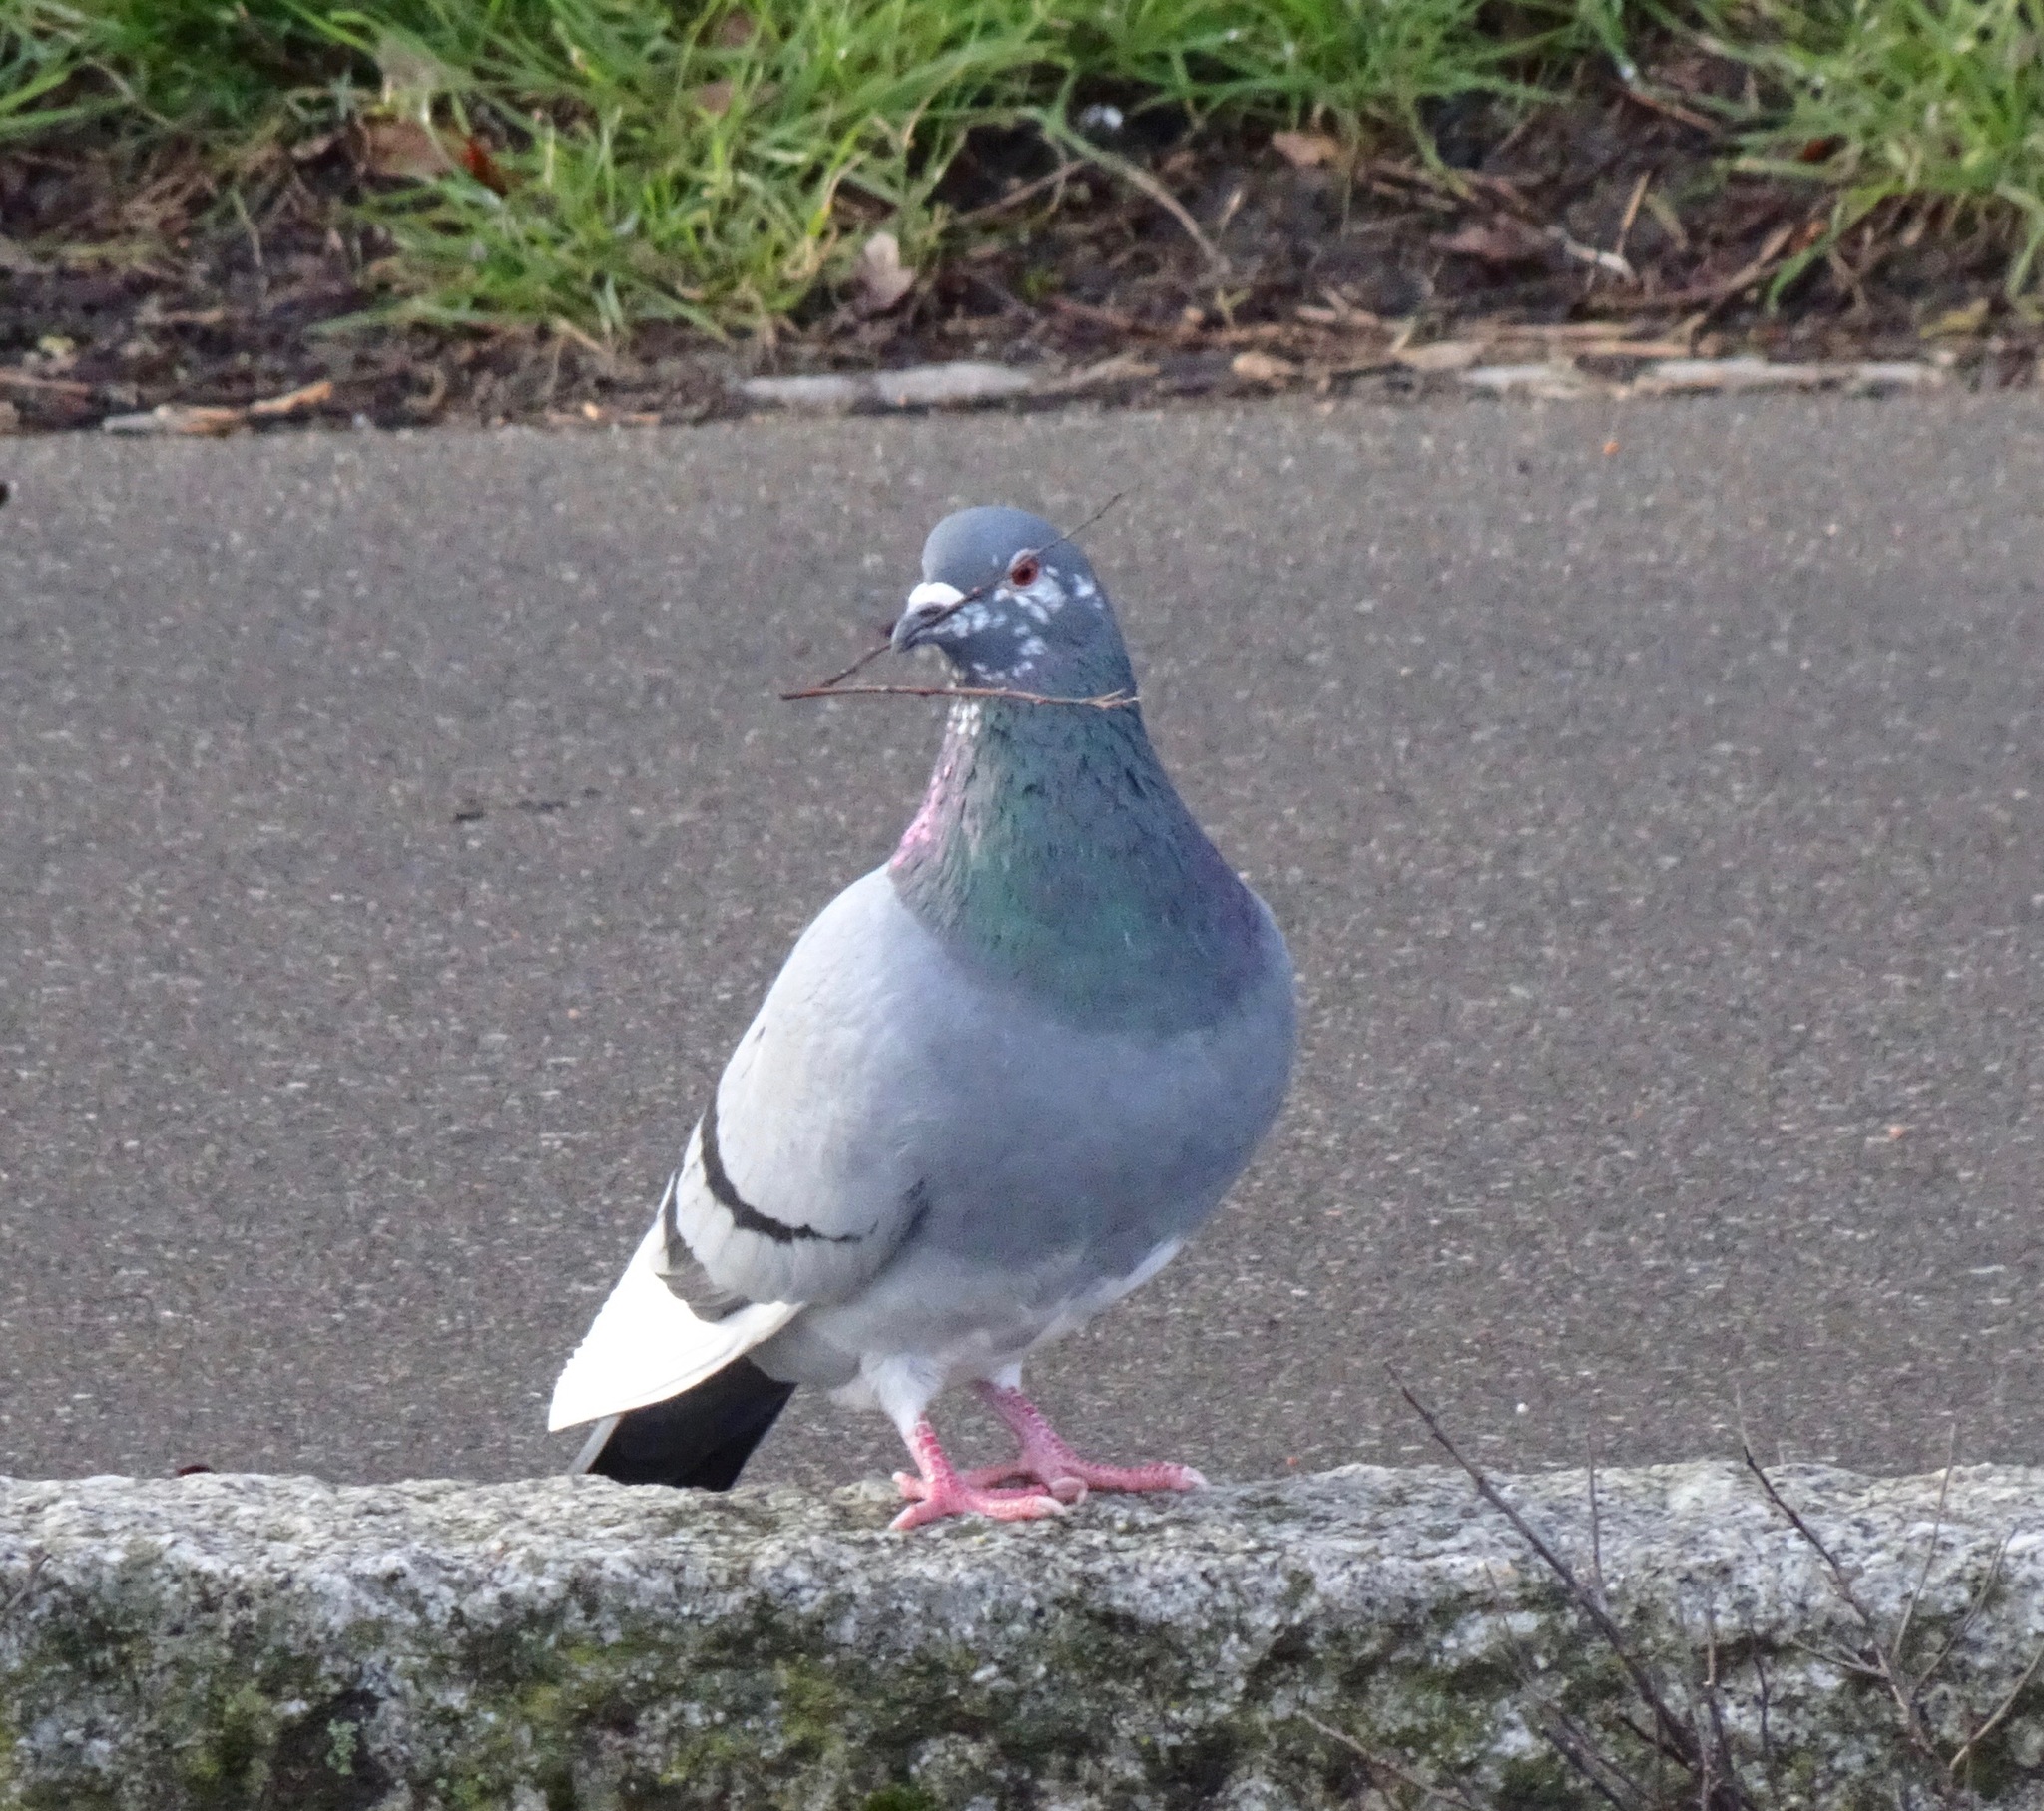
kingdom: Animalia
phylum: Chordata
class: Aves
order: Columbiformes
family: Columbidae
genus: Columba
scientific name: Columba livia
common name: Rock pigeon
